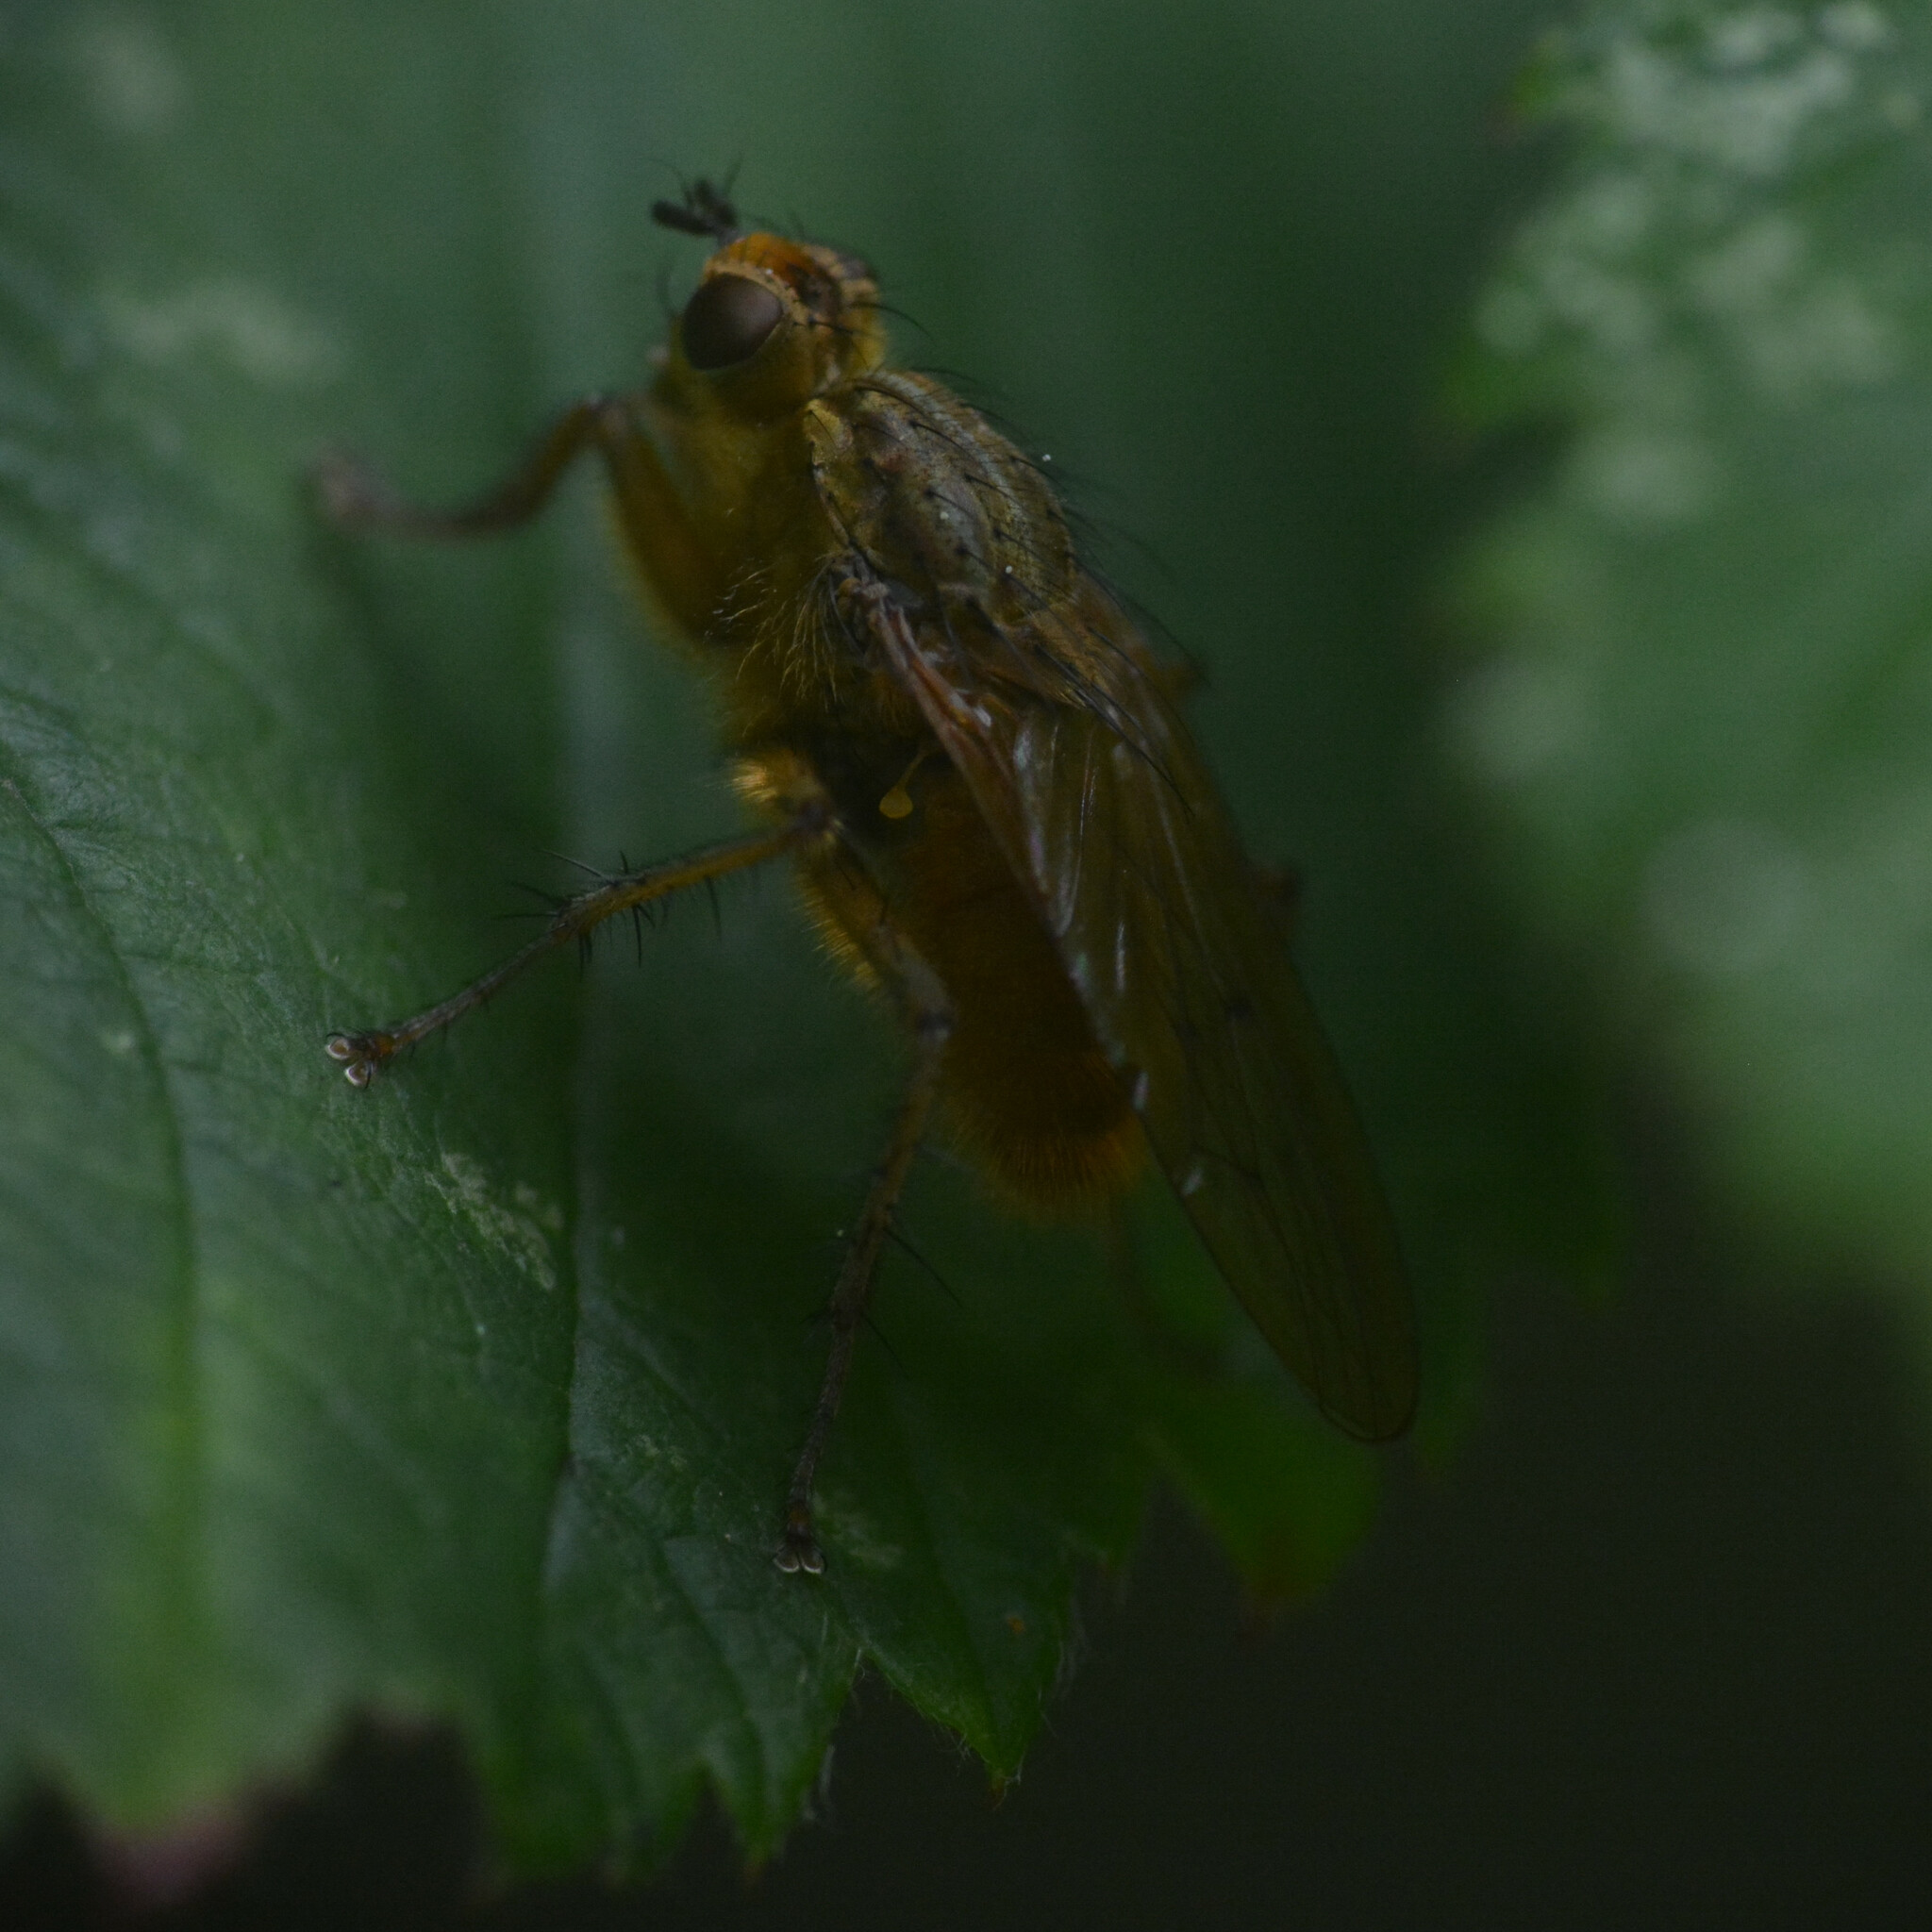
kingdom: Animalia
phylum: Arthropoda
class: Insecta
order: Diptera
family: Scathophagidae
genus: Scathophaga
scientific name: Scathophaga stercoraria
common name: Yellow dung fly
